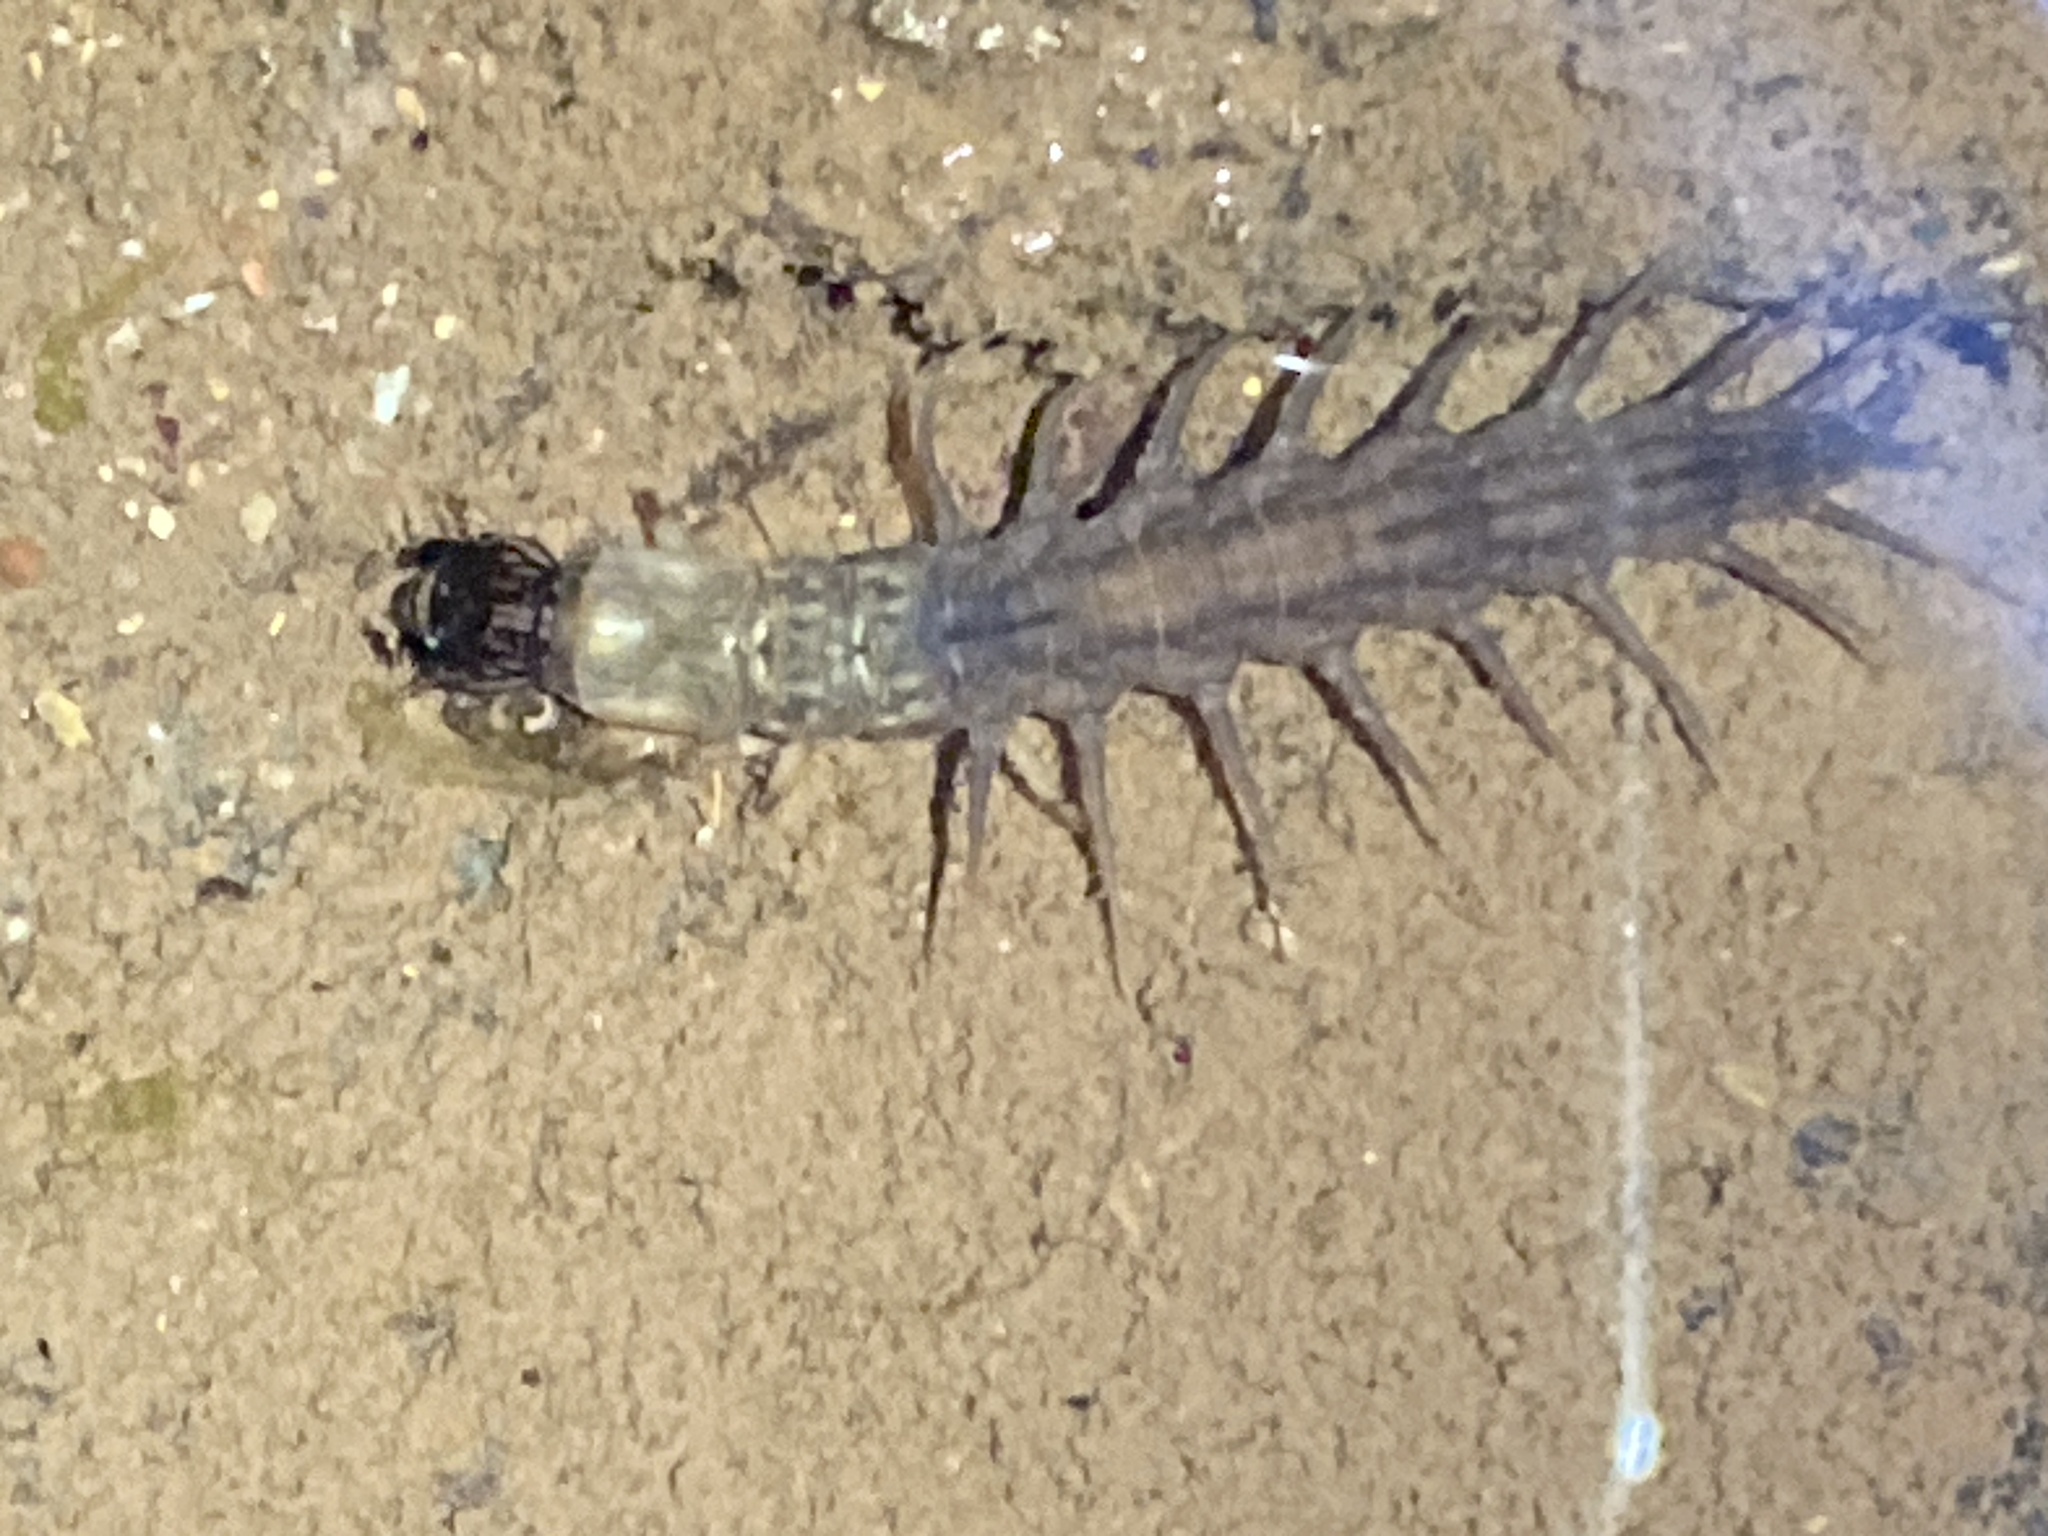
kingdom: Animalia
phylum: Arthropoda
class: Insecta
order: Megaloptera
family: Corydalidae
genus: Neohermes
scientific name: Neohermes californicus
